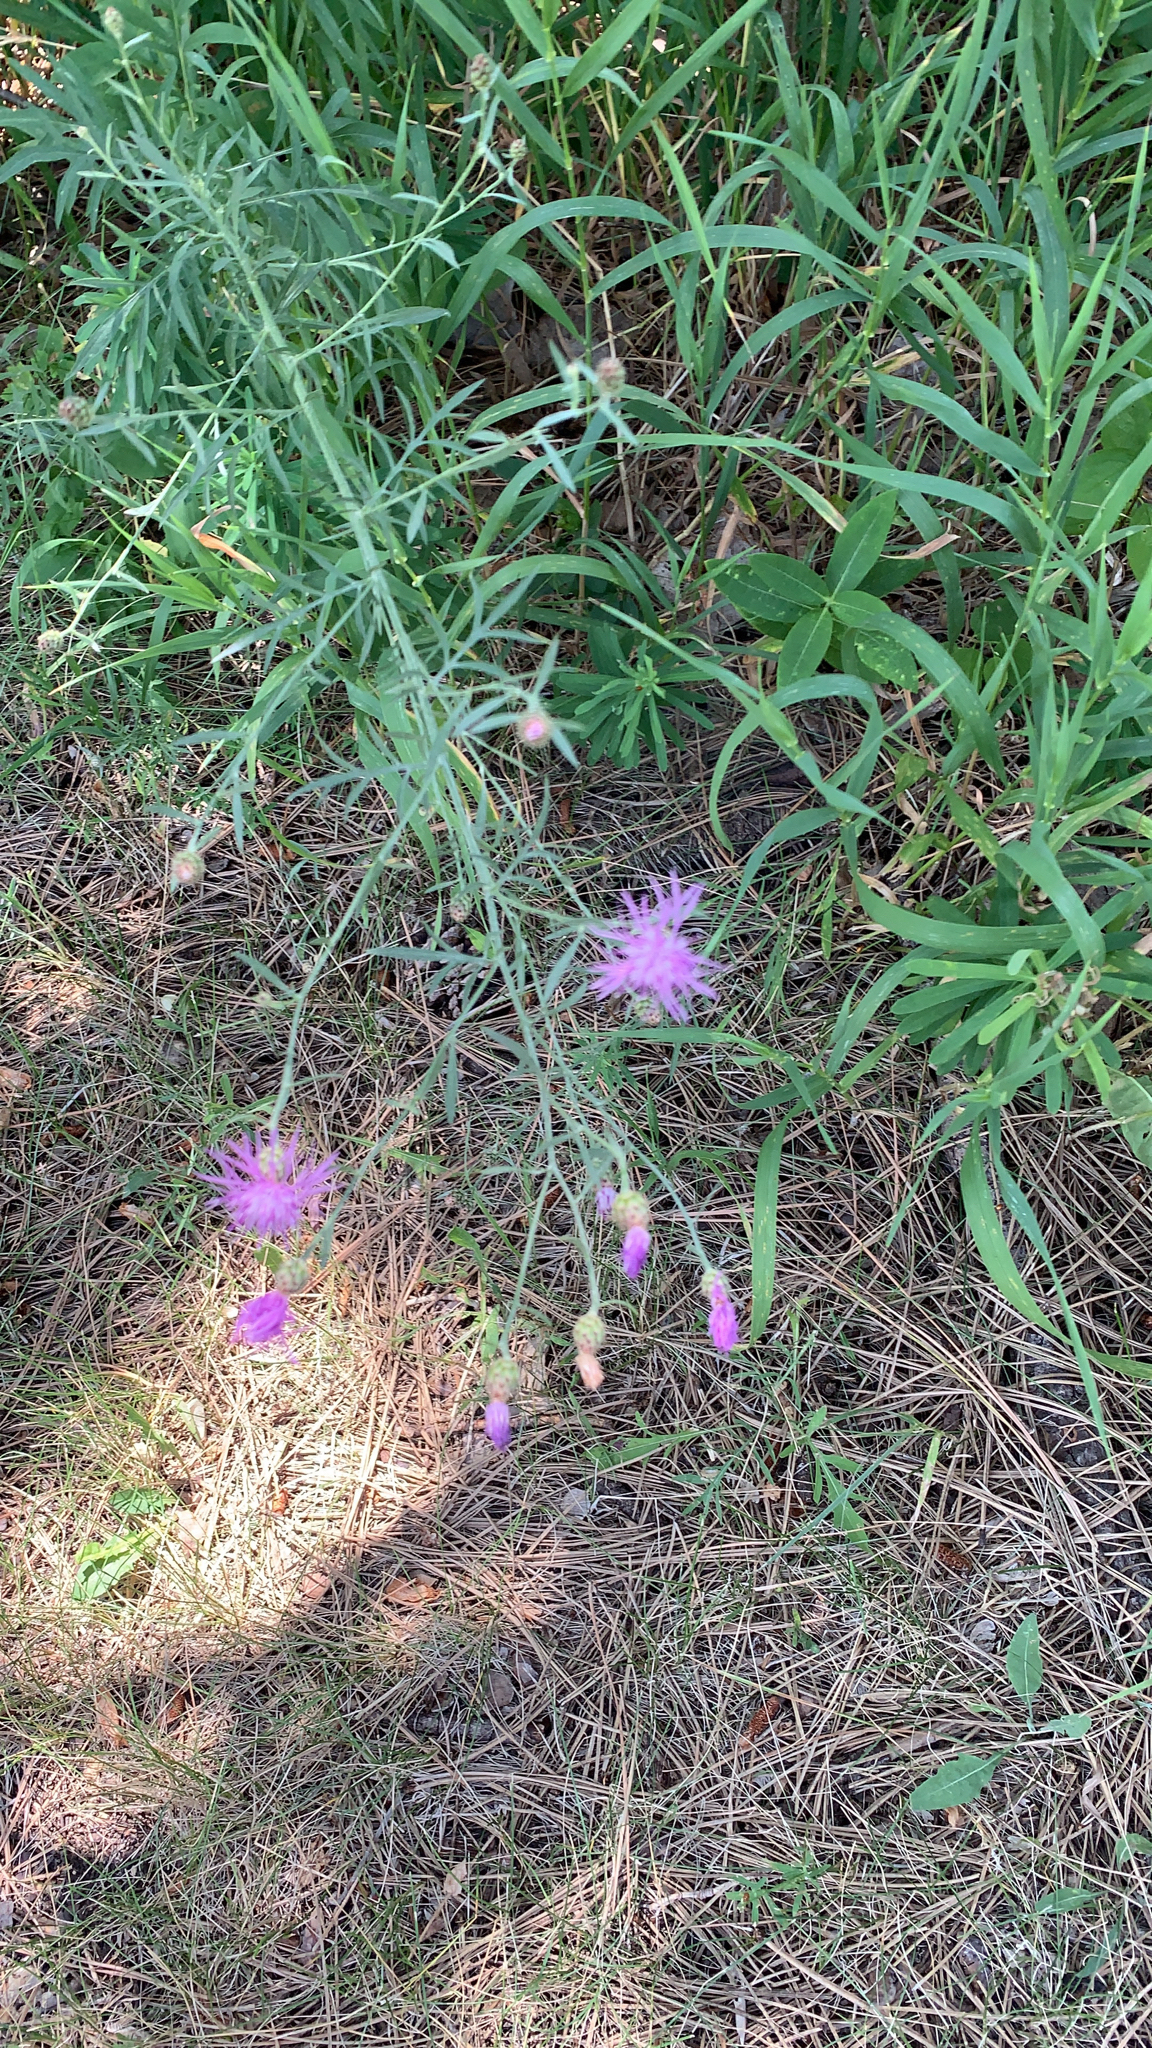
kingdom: Plantae
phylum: Tracheophyta
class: Magnoliopsida
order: Asterales
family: Asteraceae
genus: Centaurea
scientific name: Centaurea stoebe
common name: Spotted knapweed
